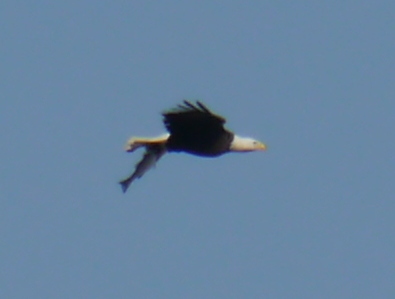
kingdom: Animalia
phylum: Chordata
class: Aves
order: Accipitriformes
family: Accipitridae
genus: Haliaeetus
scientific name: Haliaeetus leucocephalus
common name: Bald eagle
